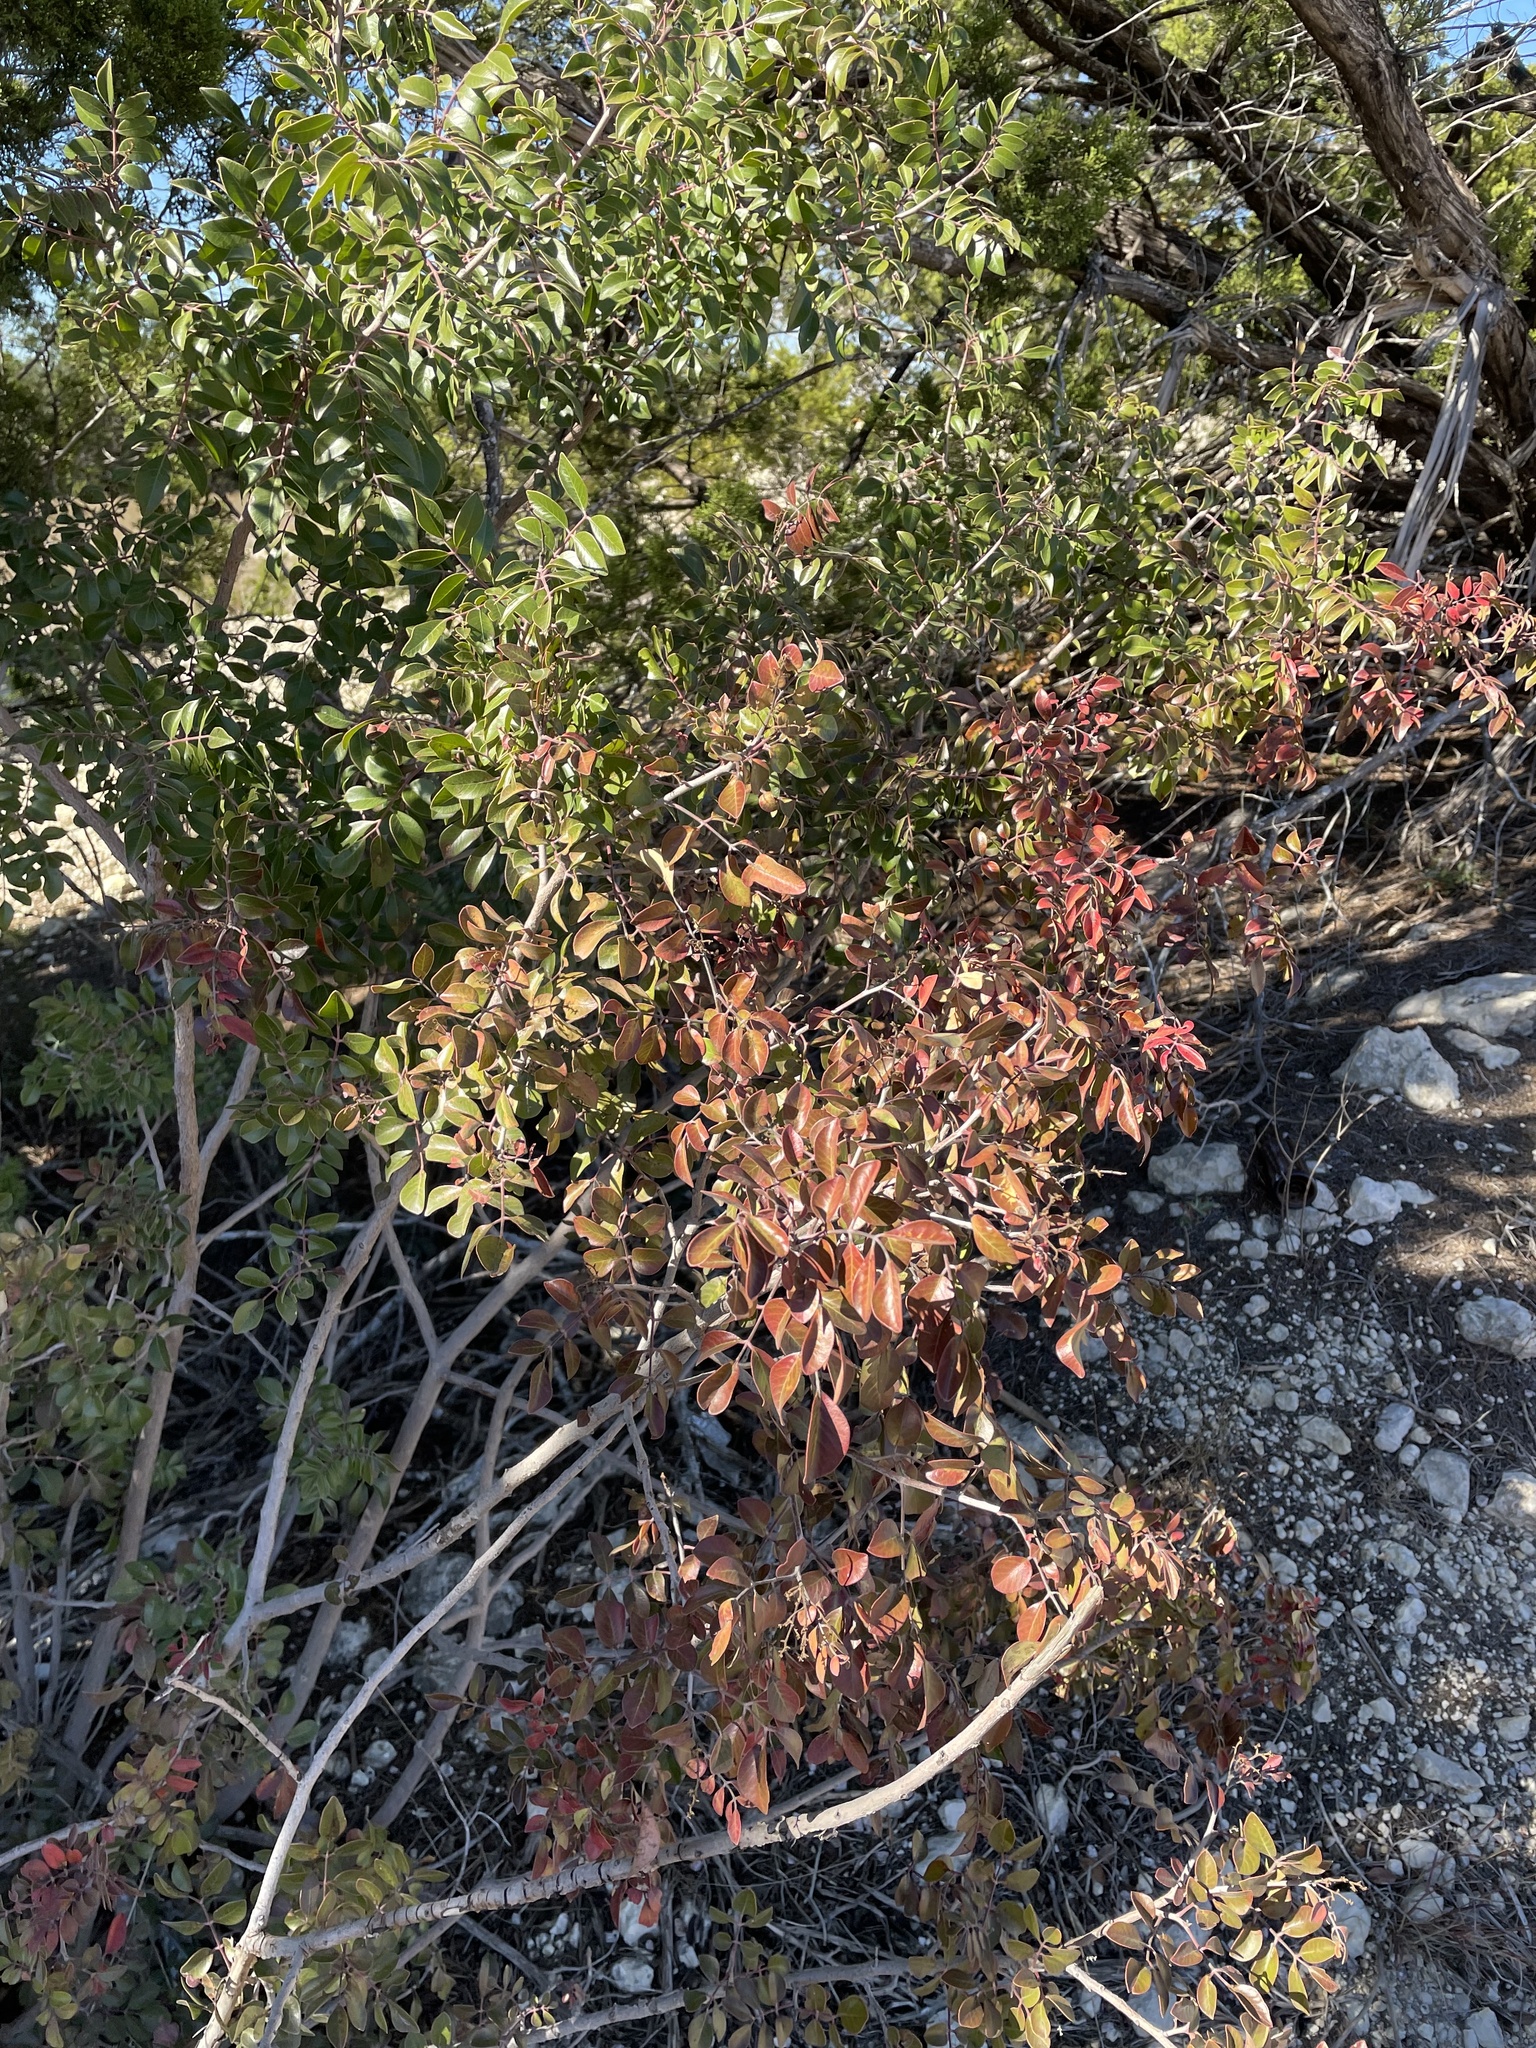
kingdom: Plantae
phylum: Tracheophyta
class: Magnoliopsida
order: Sapindales
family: Anacardiaceae
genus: Rhus
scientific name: Rhus virens
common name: Evergreen sumac
